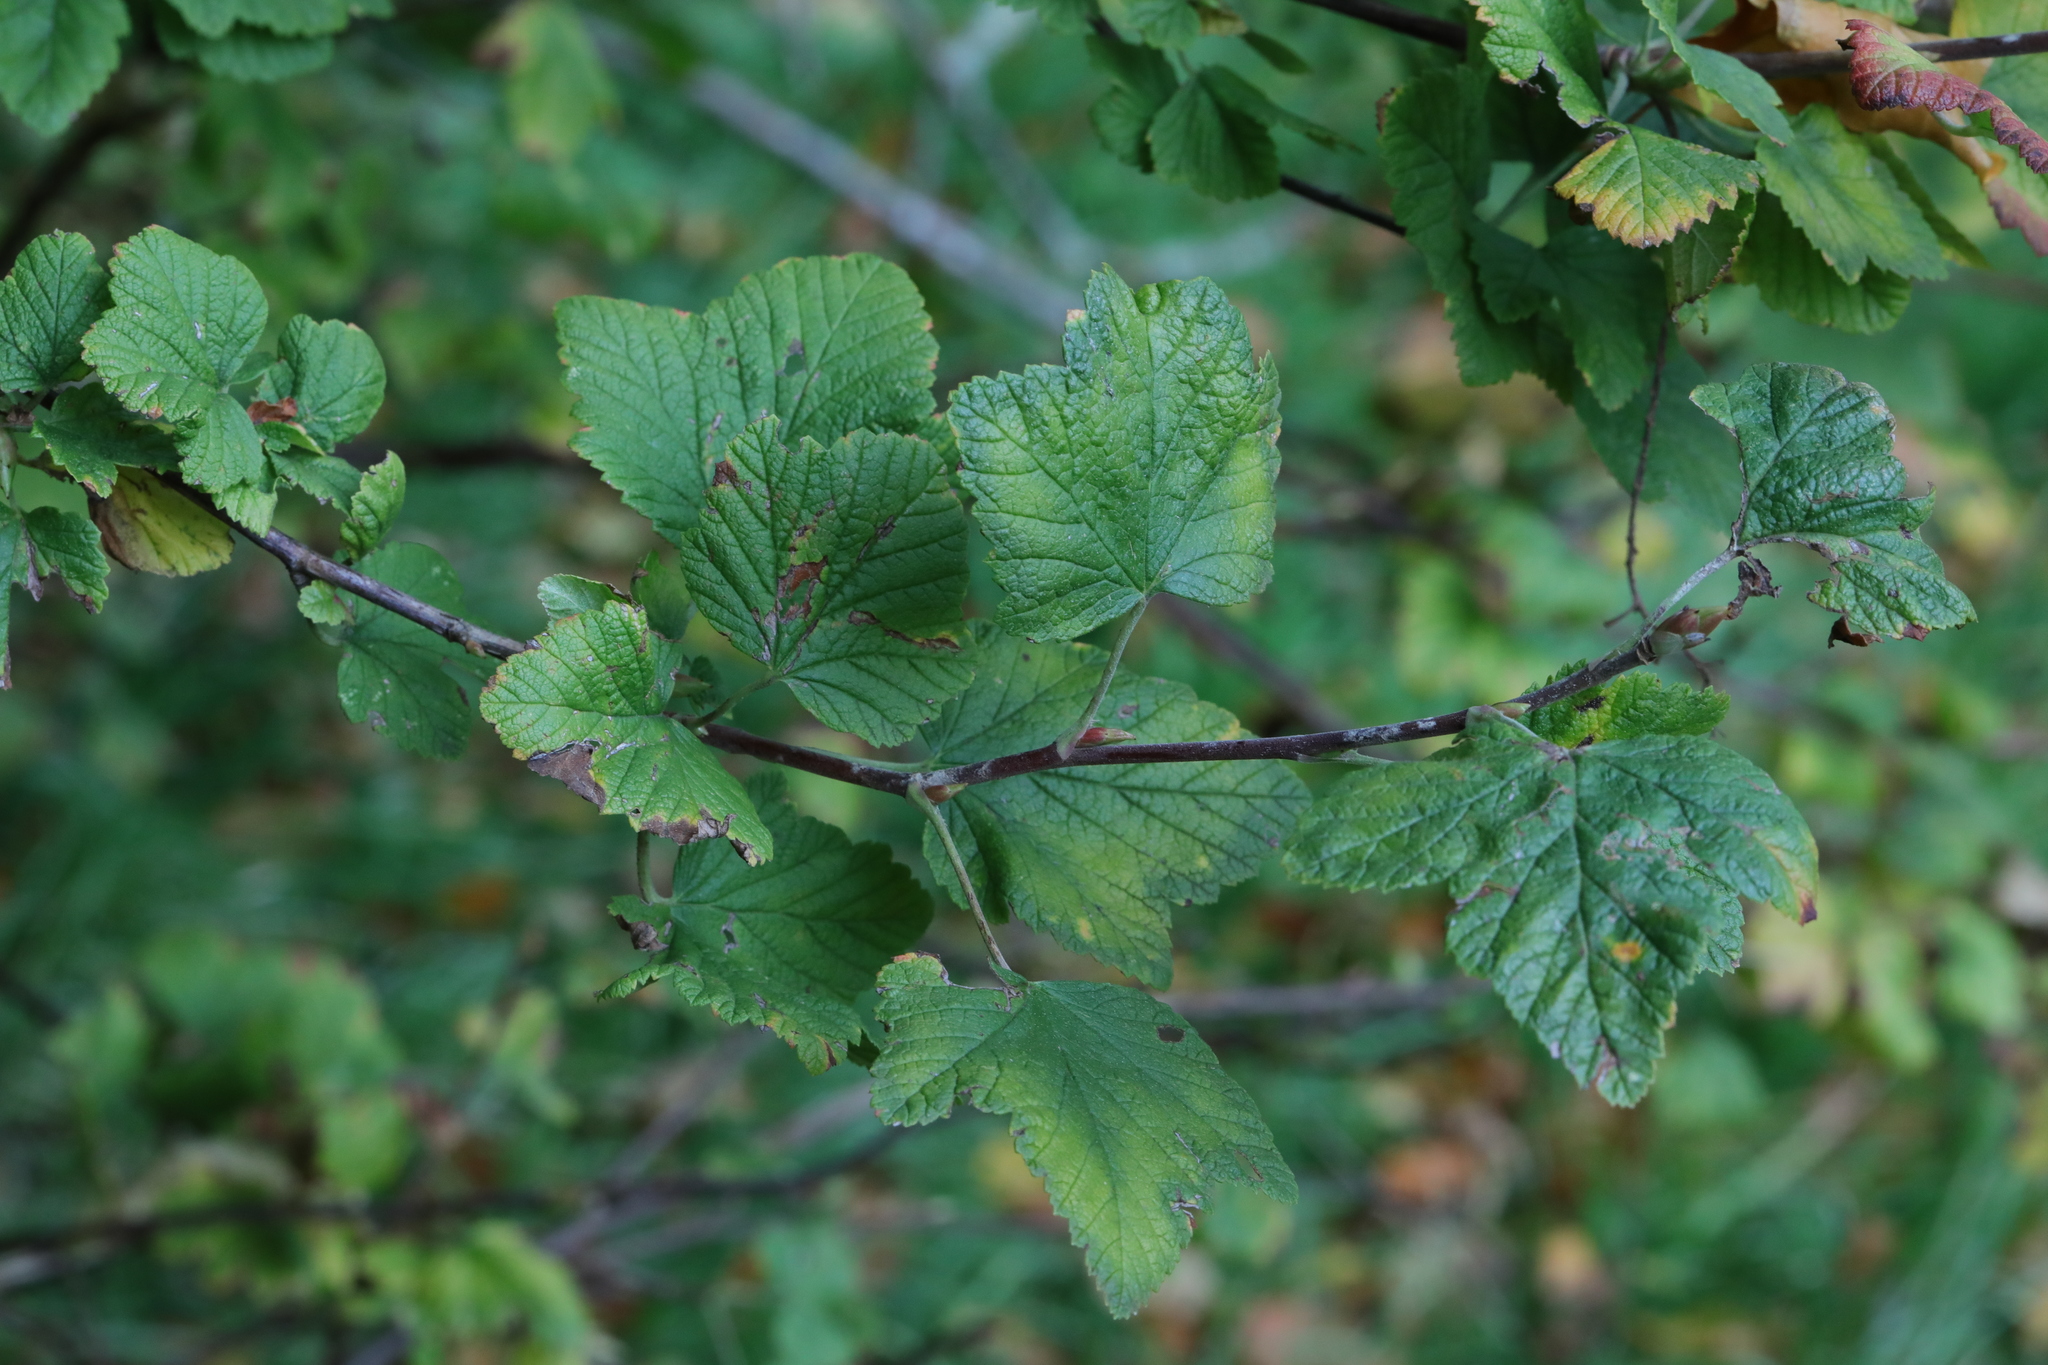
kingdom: Plantae
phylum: Tracheophyta
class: Magnoliopsida
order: Saxifragales
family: Grossulariaceae
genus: Ribes
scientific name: Ribes sanguineum
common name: Flowering currant
